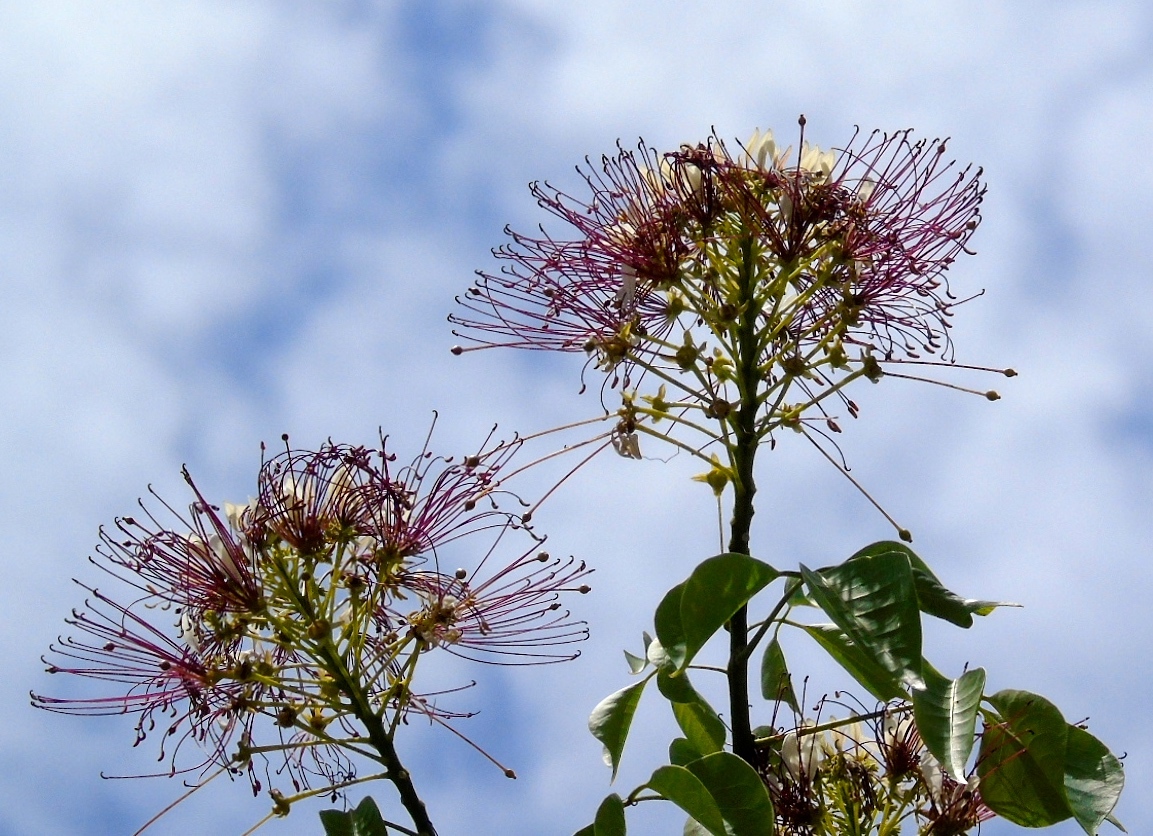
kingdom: Plantae
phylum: Tracheophyta
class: Magnoliopsida
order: Brassicales
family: Capparaceae
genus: Crateva
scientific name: Crateva tapia
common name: Garlic-pear
